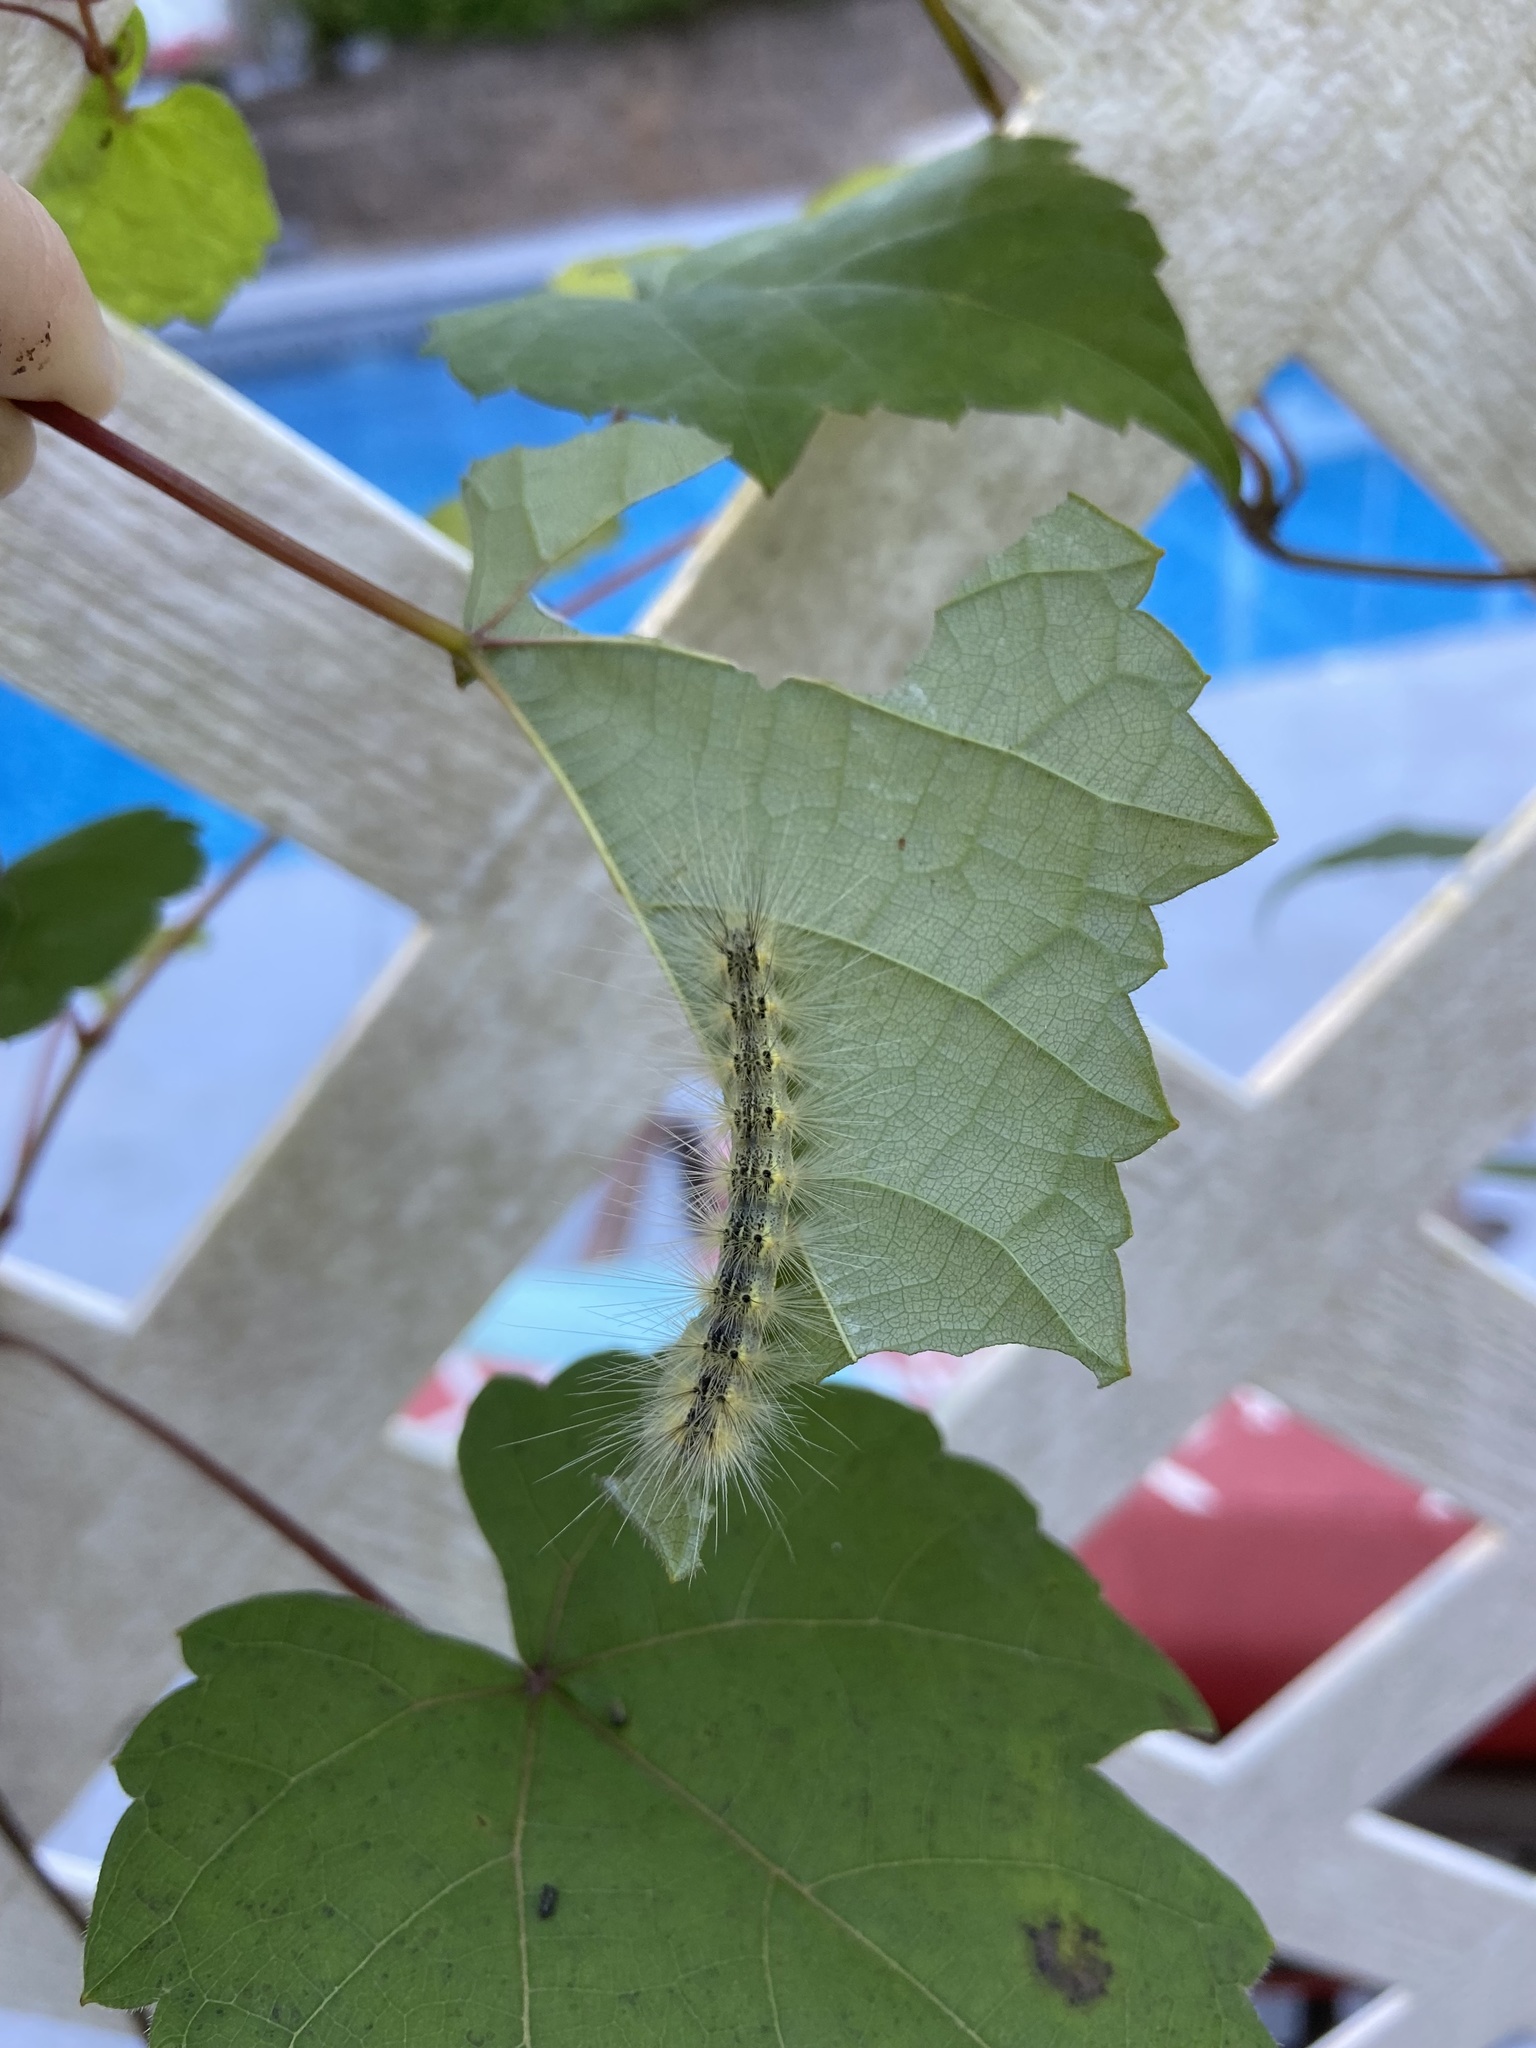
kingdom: Animalia
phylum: Arthropoda
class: Insecta
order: Lepidoptera
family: Erebidae
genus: Hyphantria
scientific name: Hyphantria cunea
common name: American white moth
